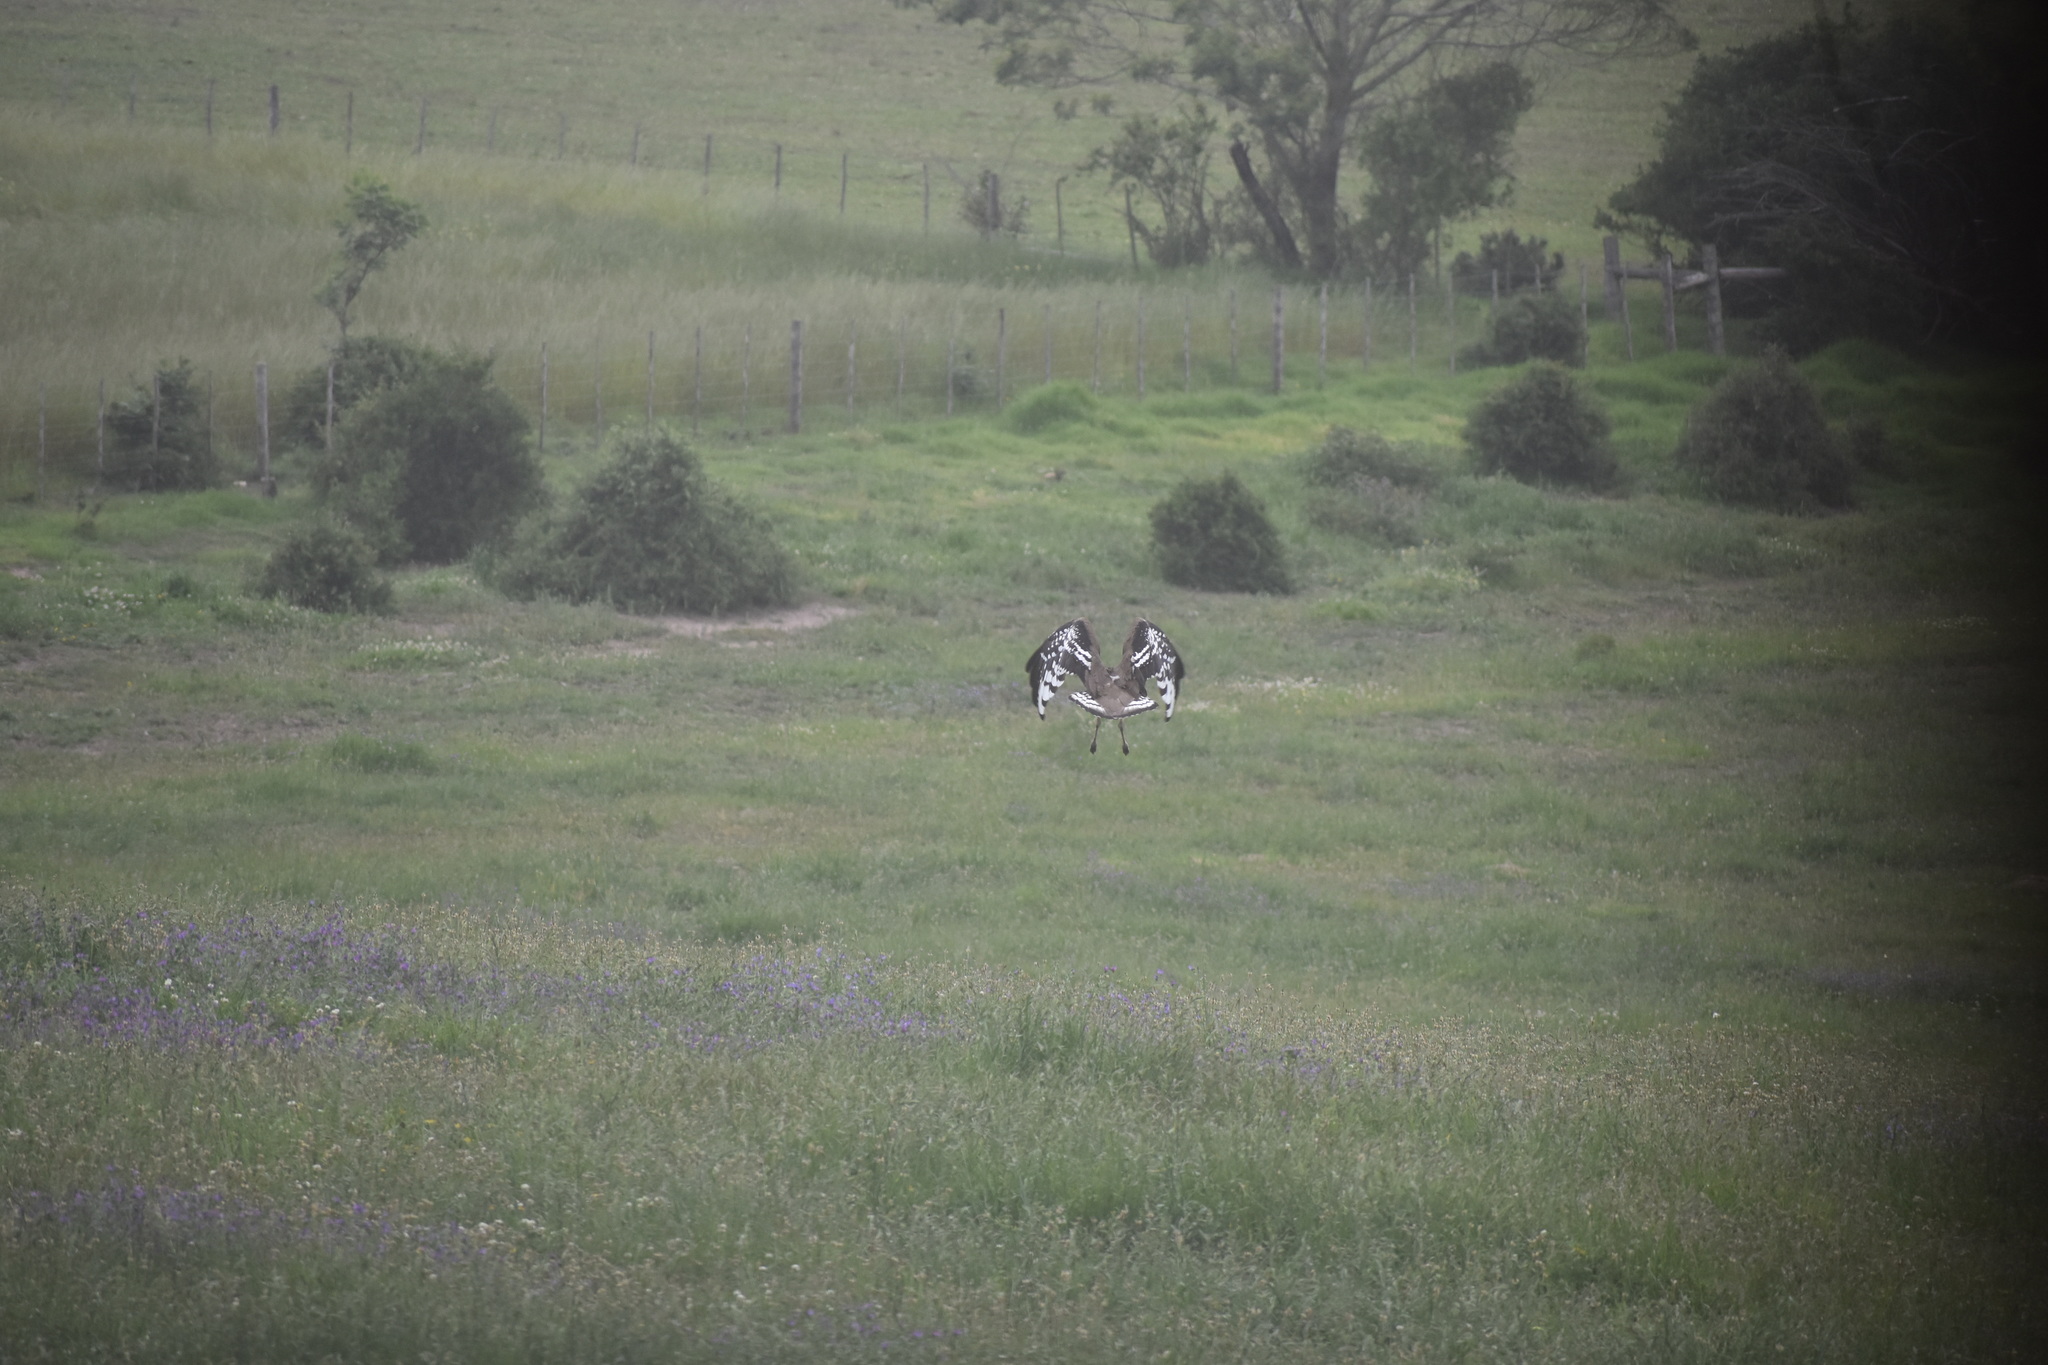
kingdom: Animalia
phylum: Chordata
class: Aves
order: Otidiformes
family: Otididae
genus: Neotis
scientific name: Neotis denhami
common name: Denham's bustard
